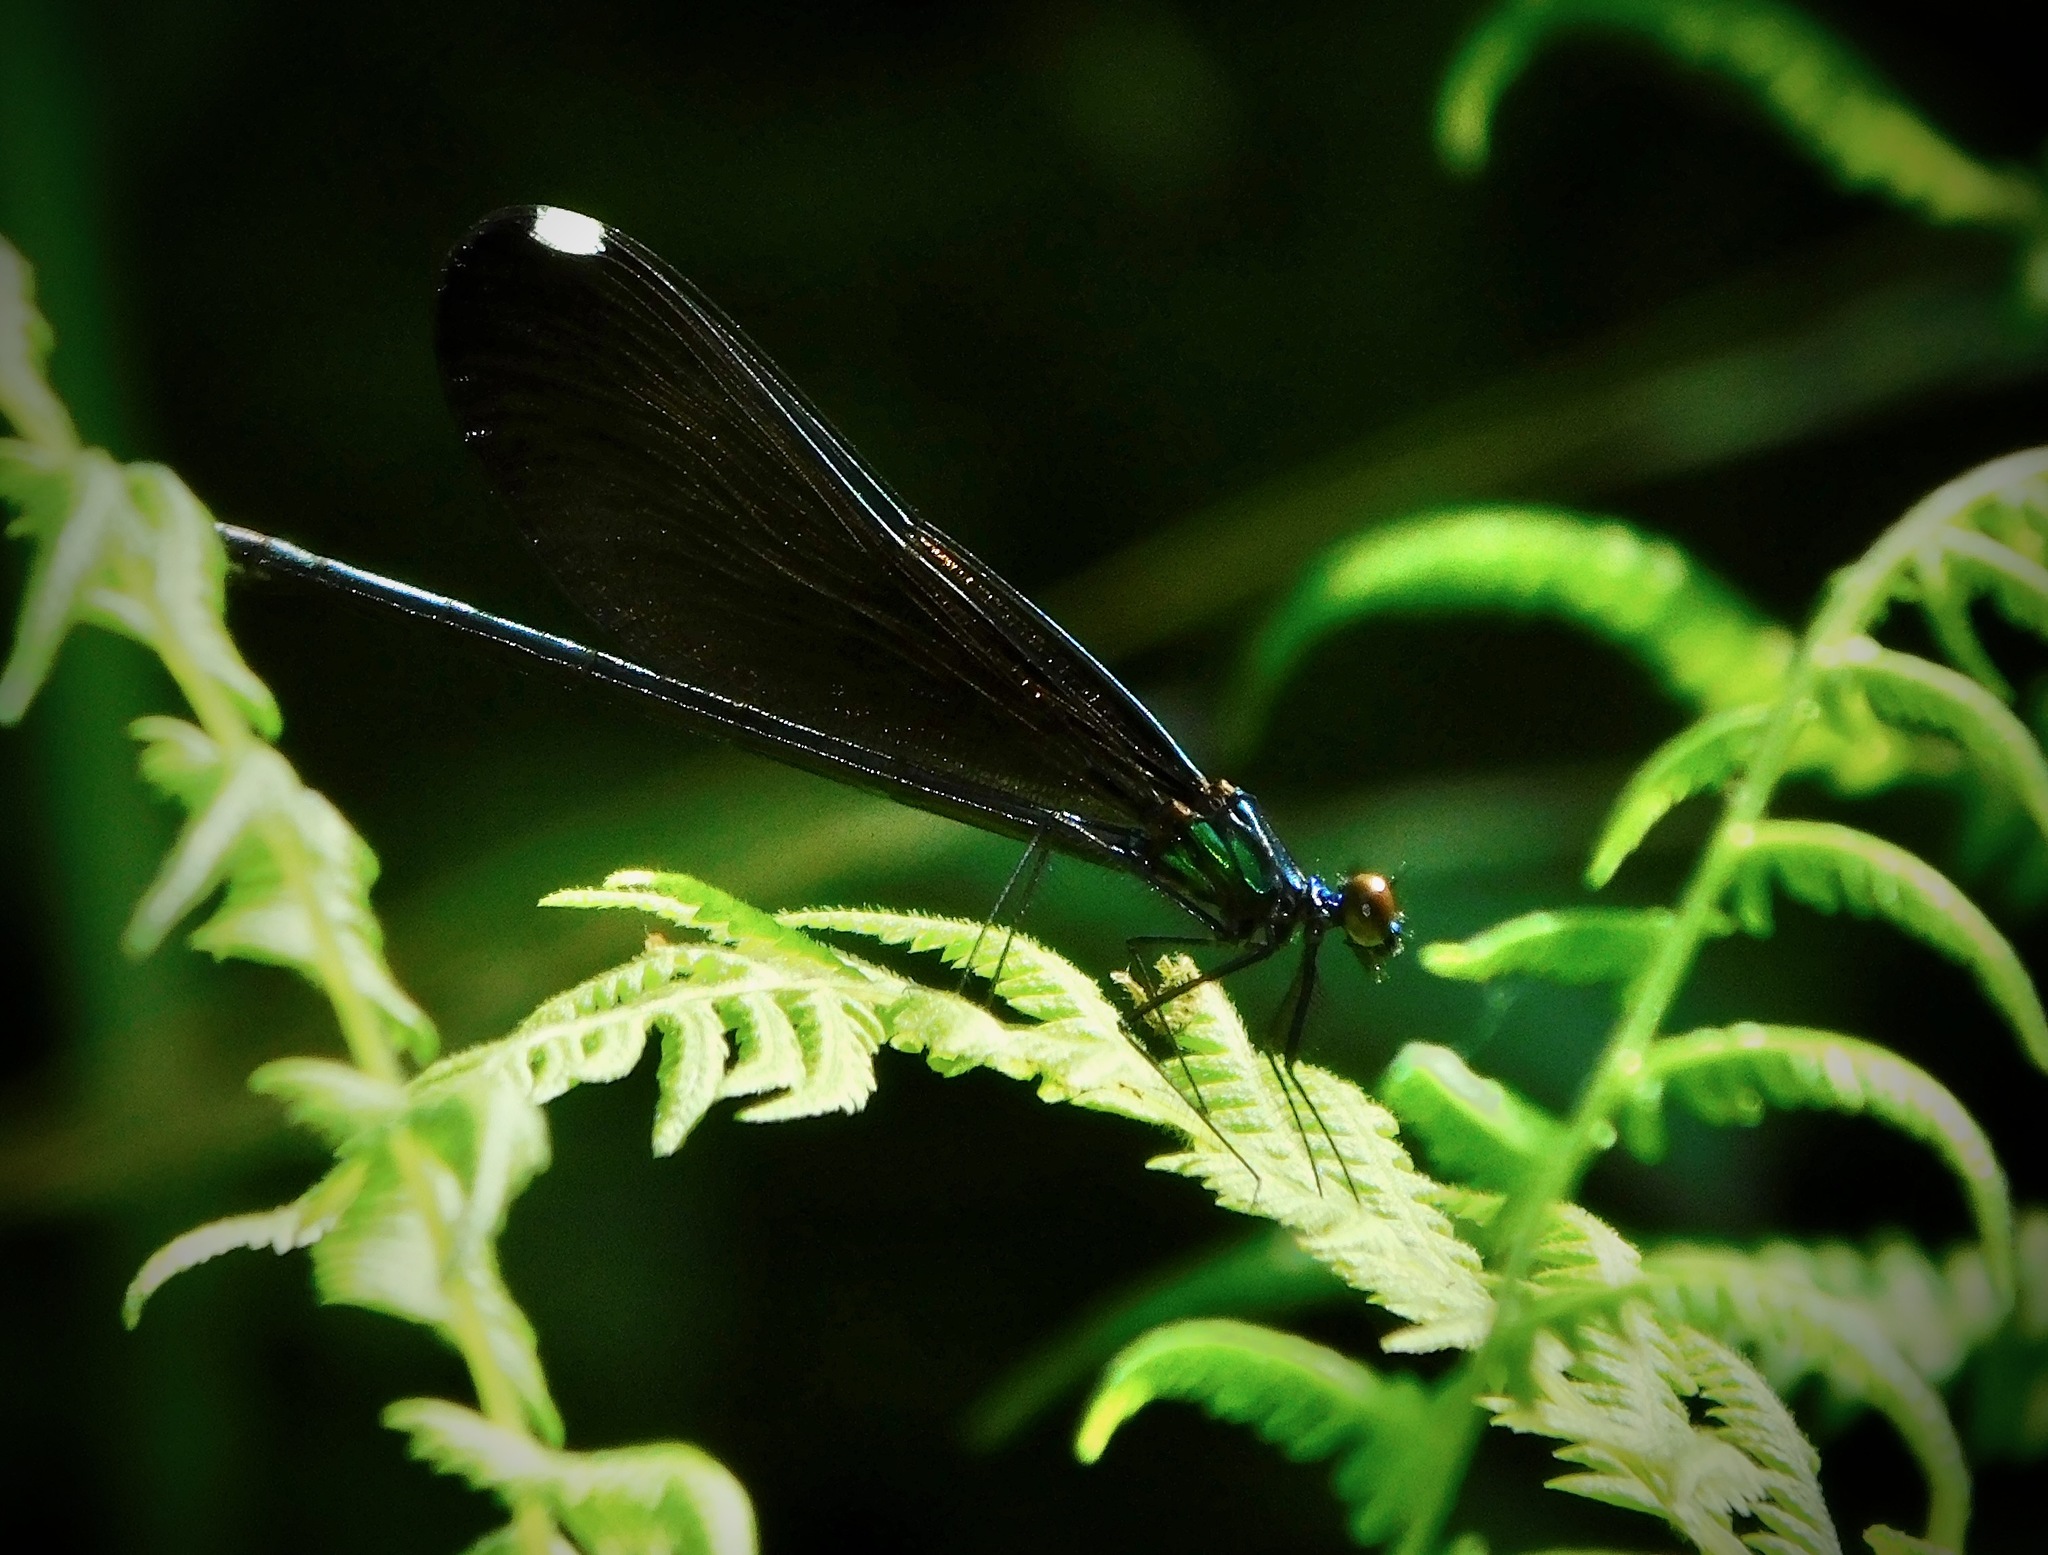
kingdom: Animalia
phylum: Arthropoda
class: Insecta
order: Odonata
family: Calopterygidae
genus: Calopteryx
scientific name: Calopteryx maculata
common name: Ebony jewelwing
